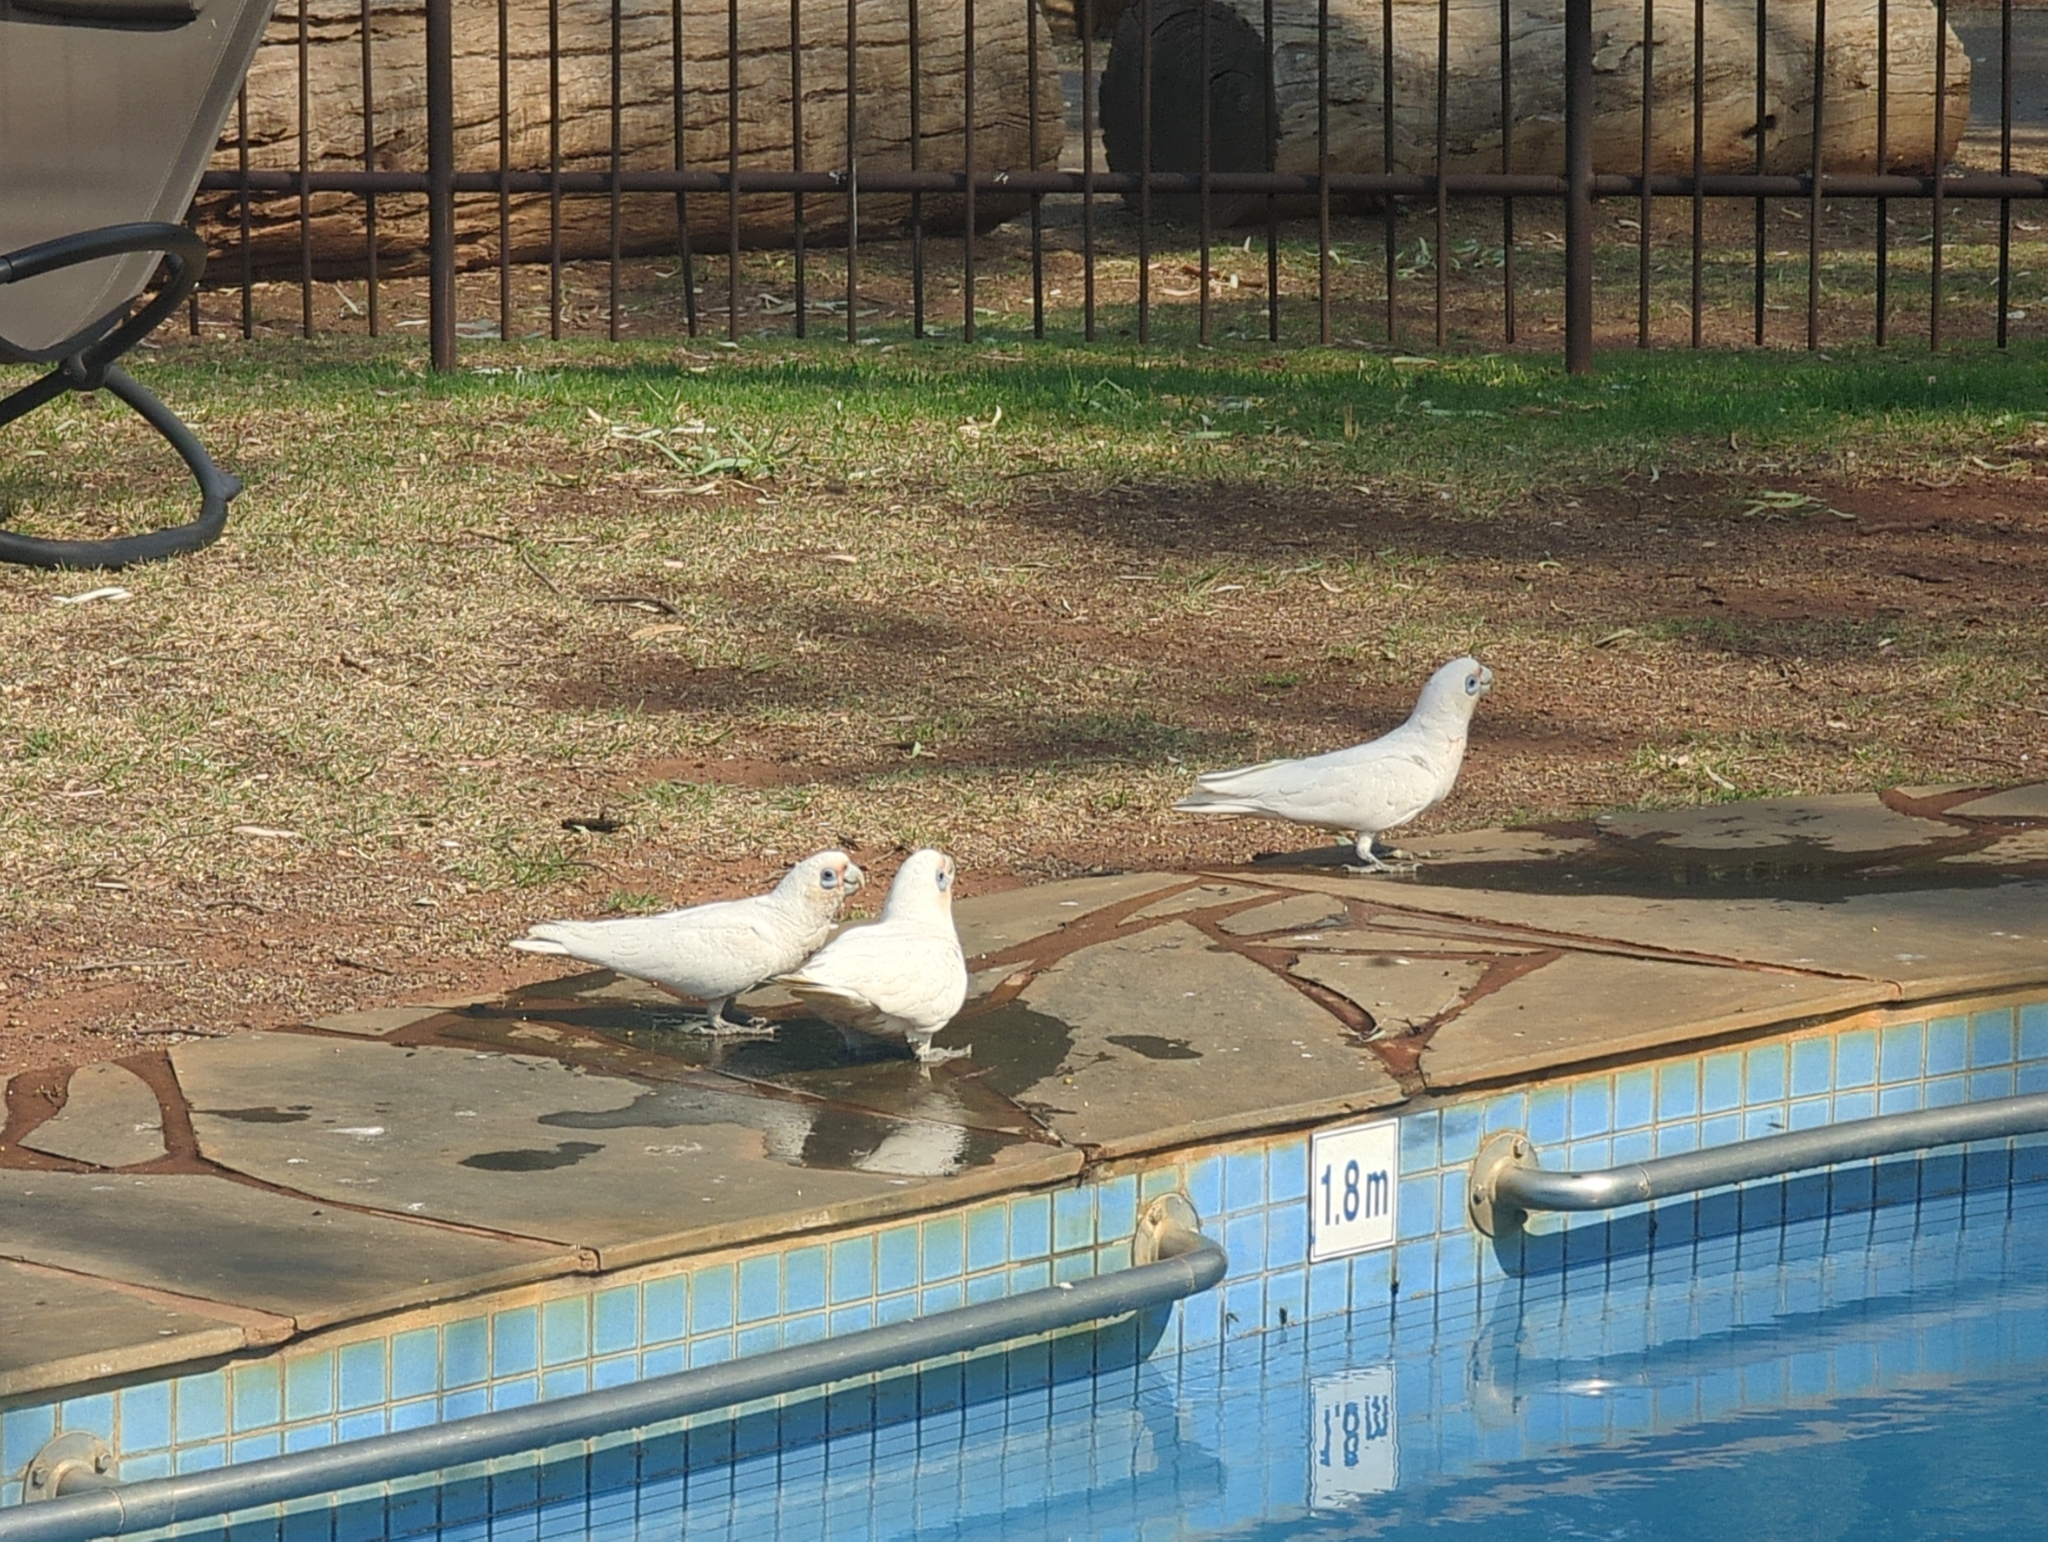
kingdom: Animalia
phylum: Chordata
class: Aves
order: Psittaciformes
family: Psittacidae
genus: Cacatua
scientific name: Cacatua sanguinea
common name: Little corella
